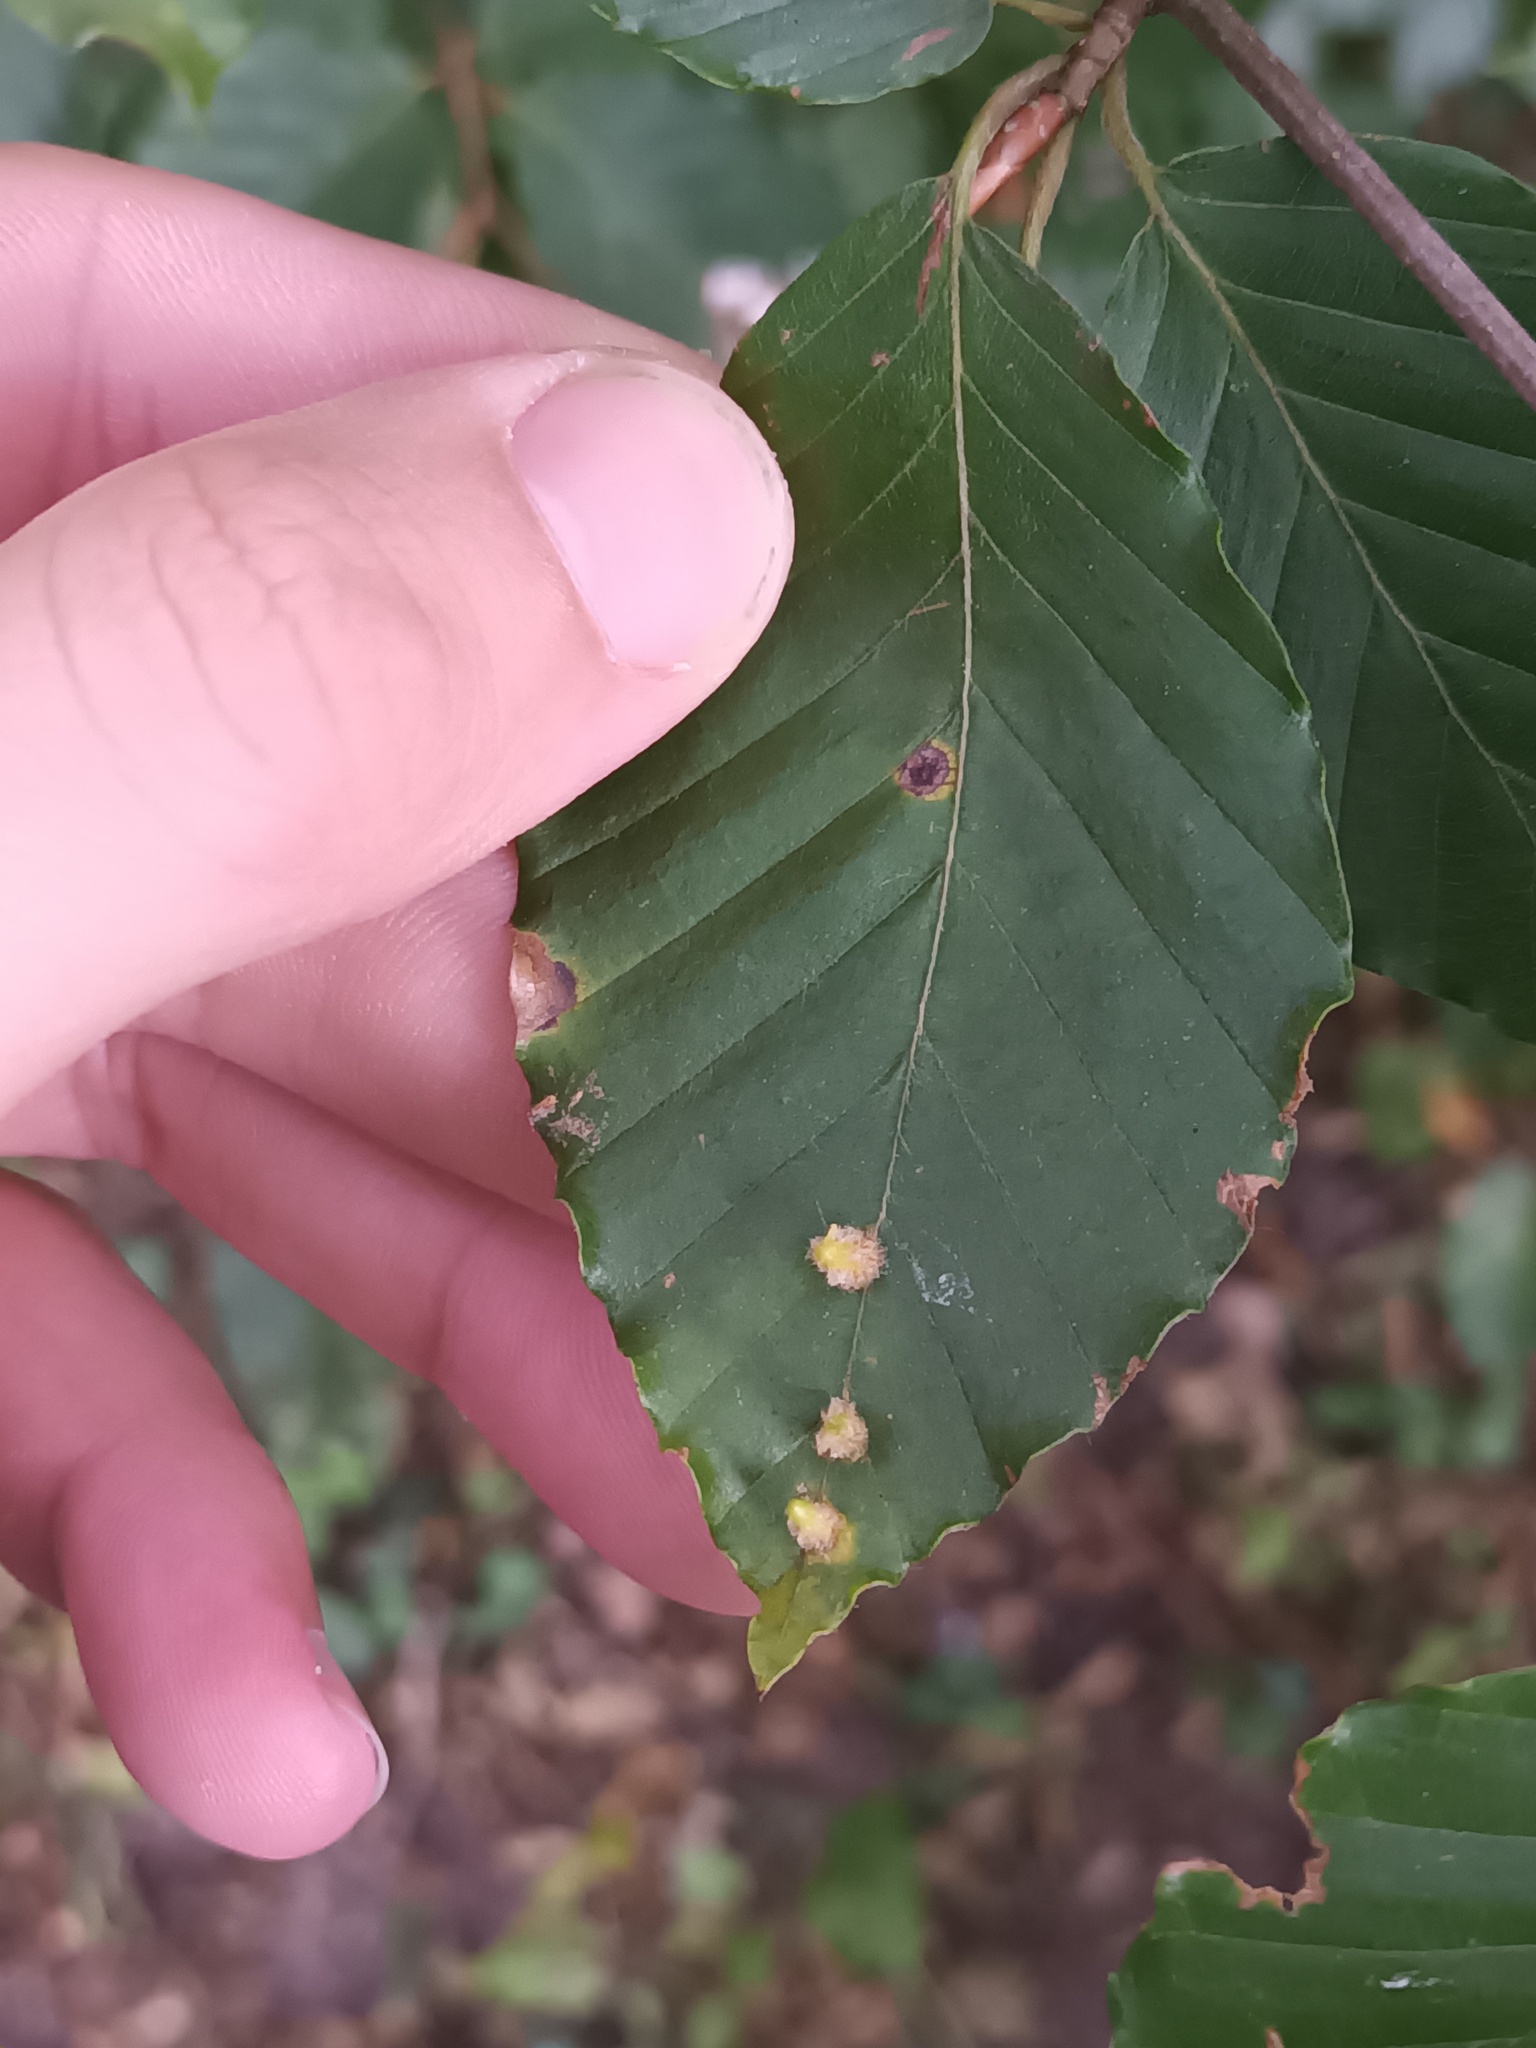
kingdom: Animalia
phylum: Arthropoda
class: Insecta
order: Diptera
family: Cecidomyiidae
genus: Hartigiola
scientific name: Hartigiola annulipes
